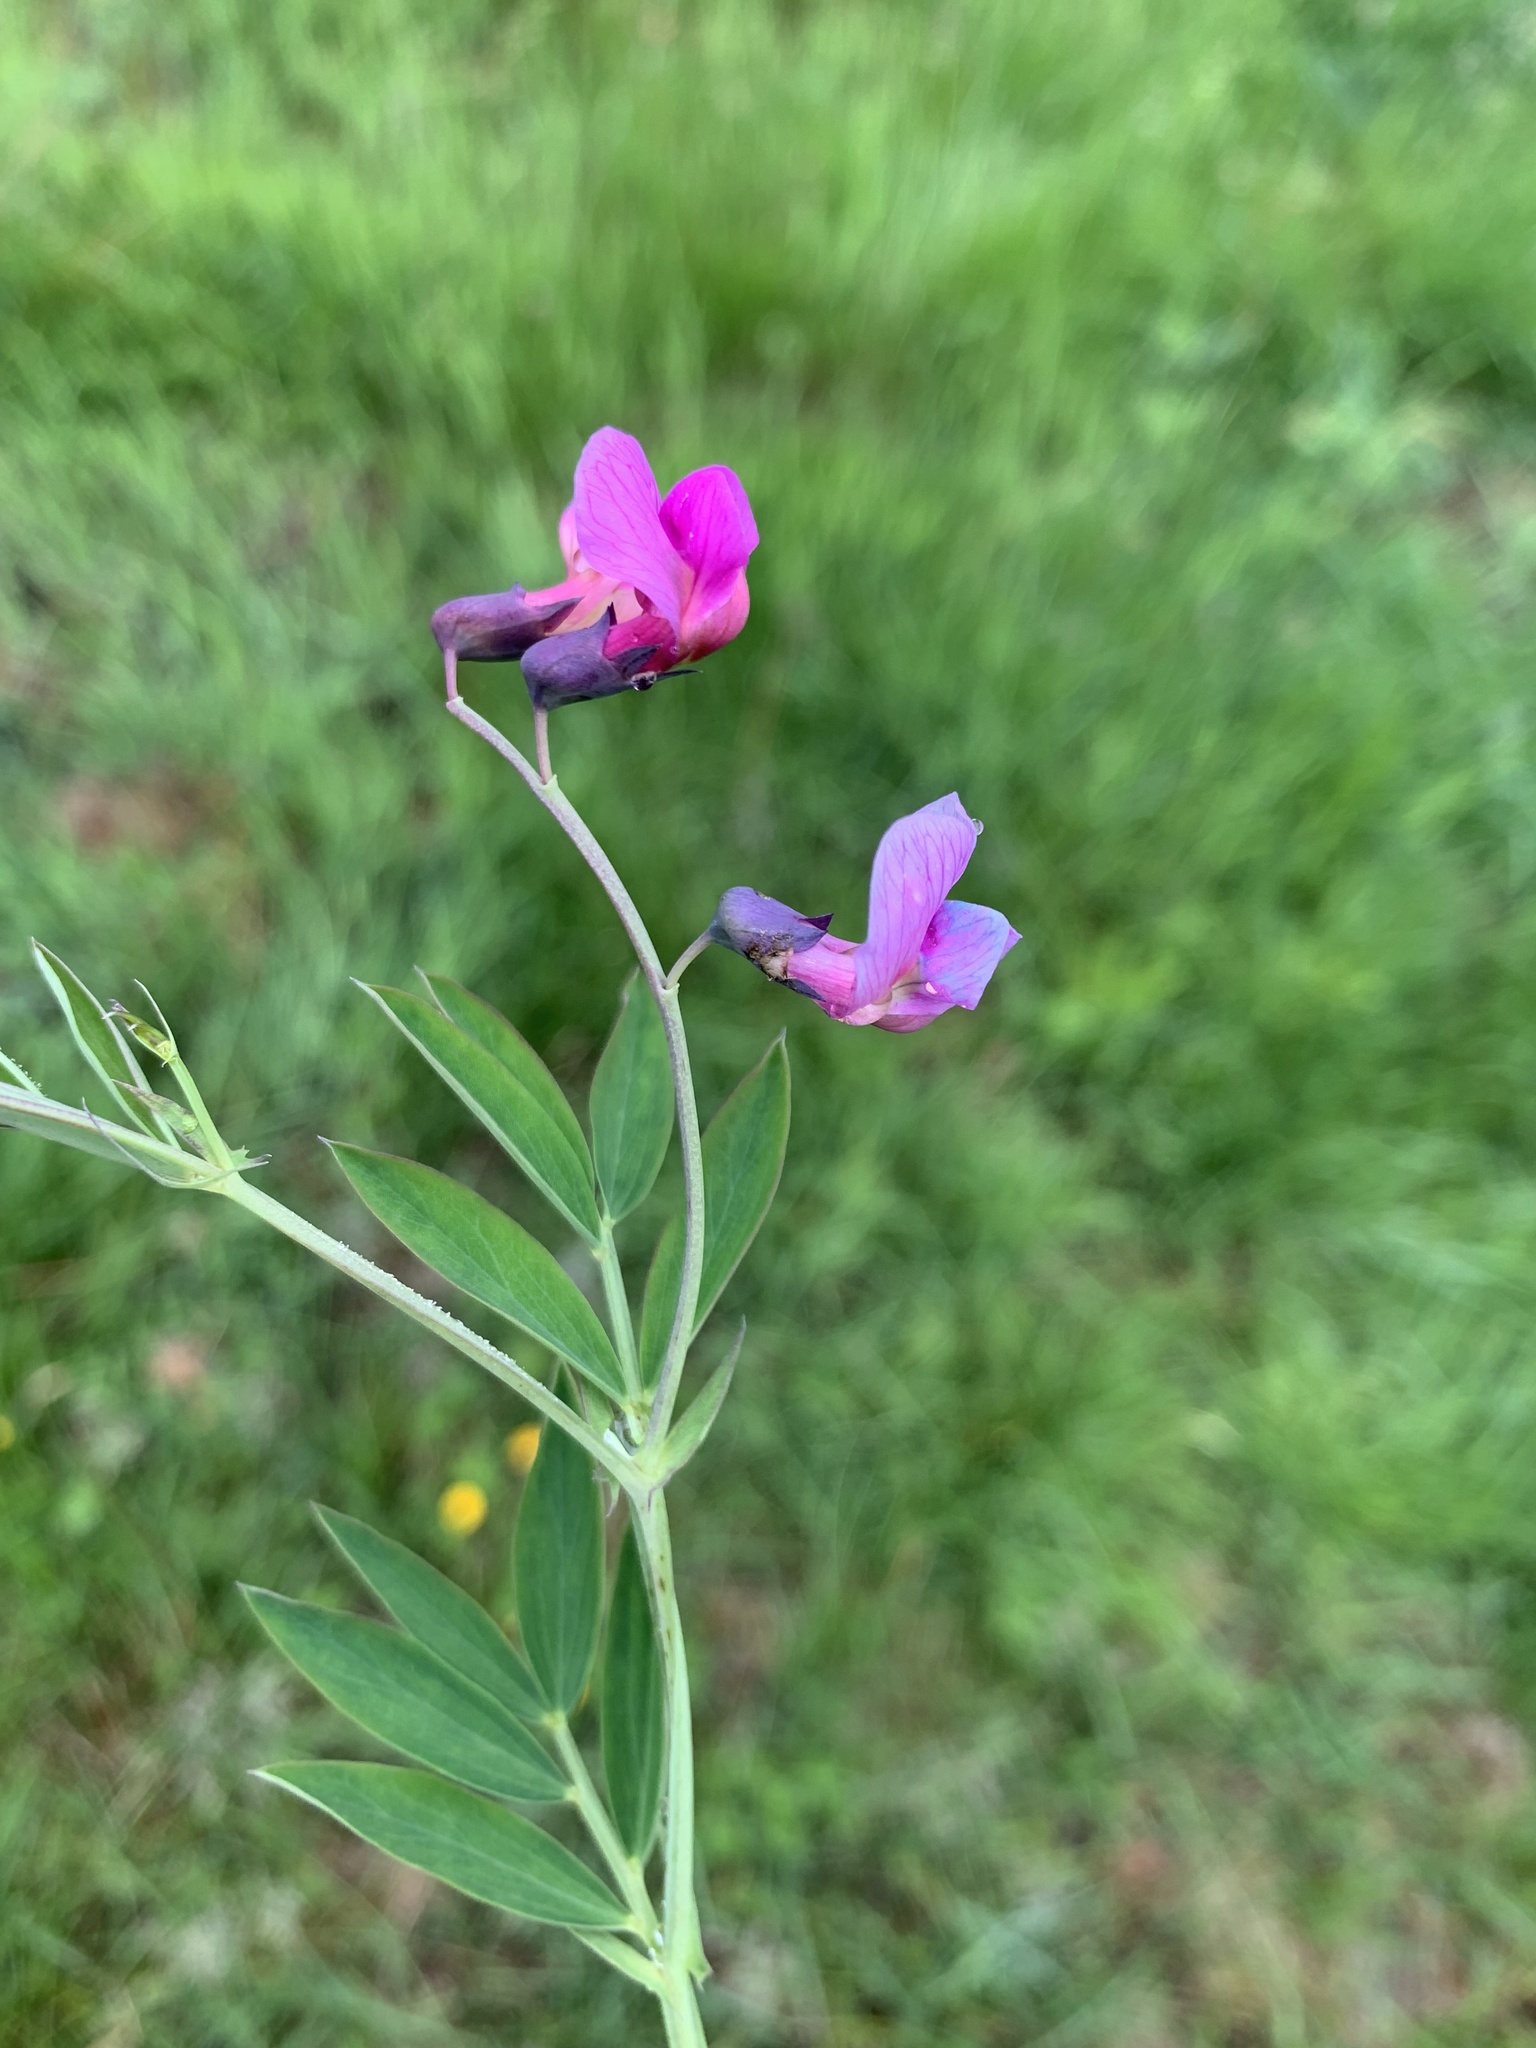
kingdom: Plantae
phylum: Tracheophyta
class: Magnoliopsida
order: Fabales
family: Fabaceae
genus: Lathyrus
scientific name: Lathyrus linifolius
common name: Bitter-vetch
